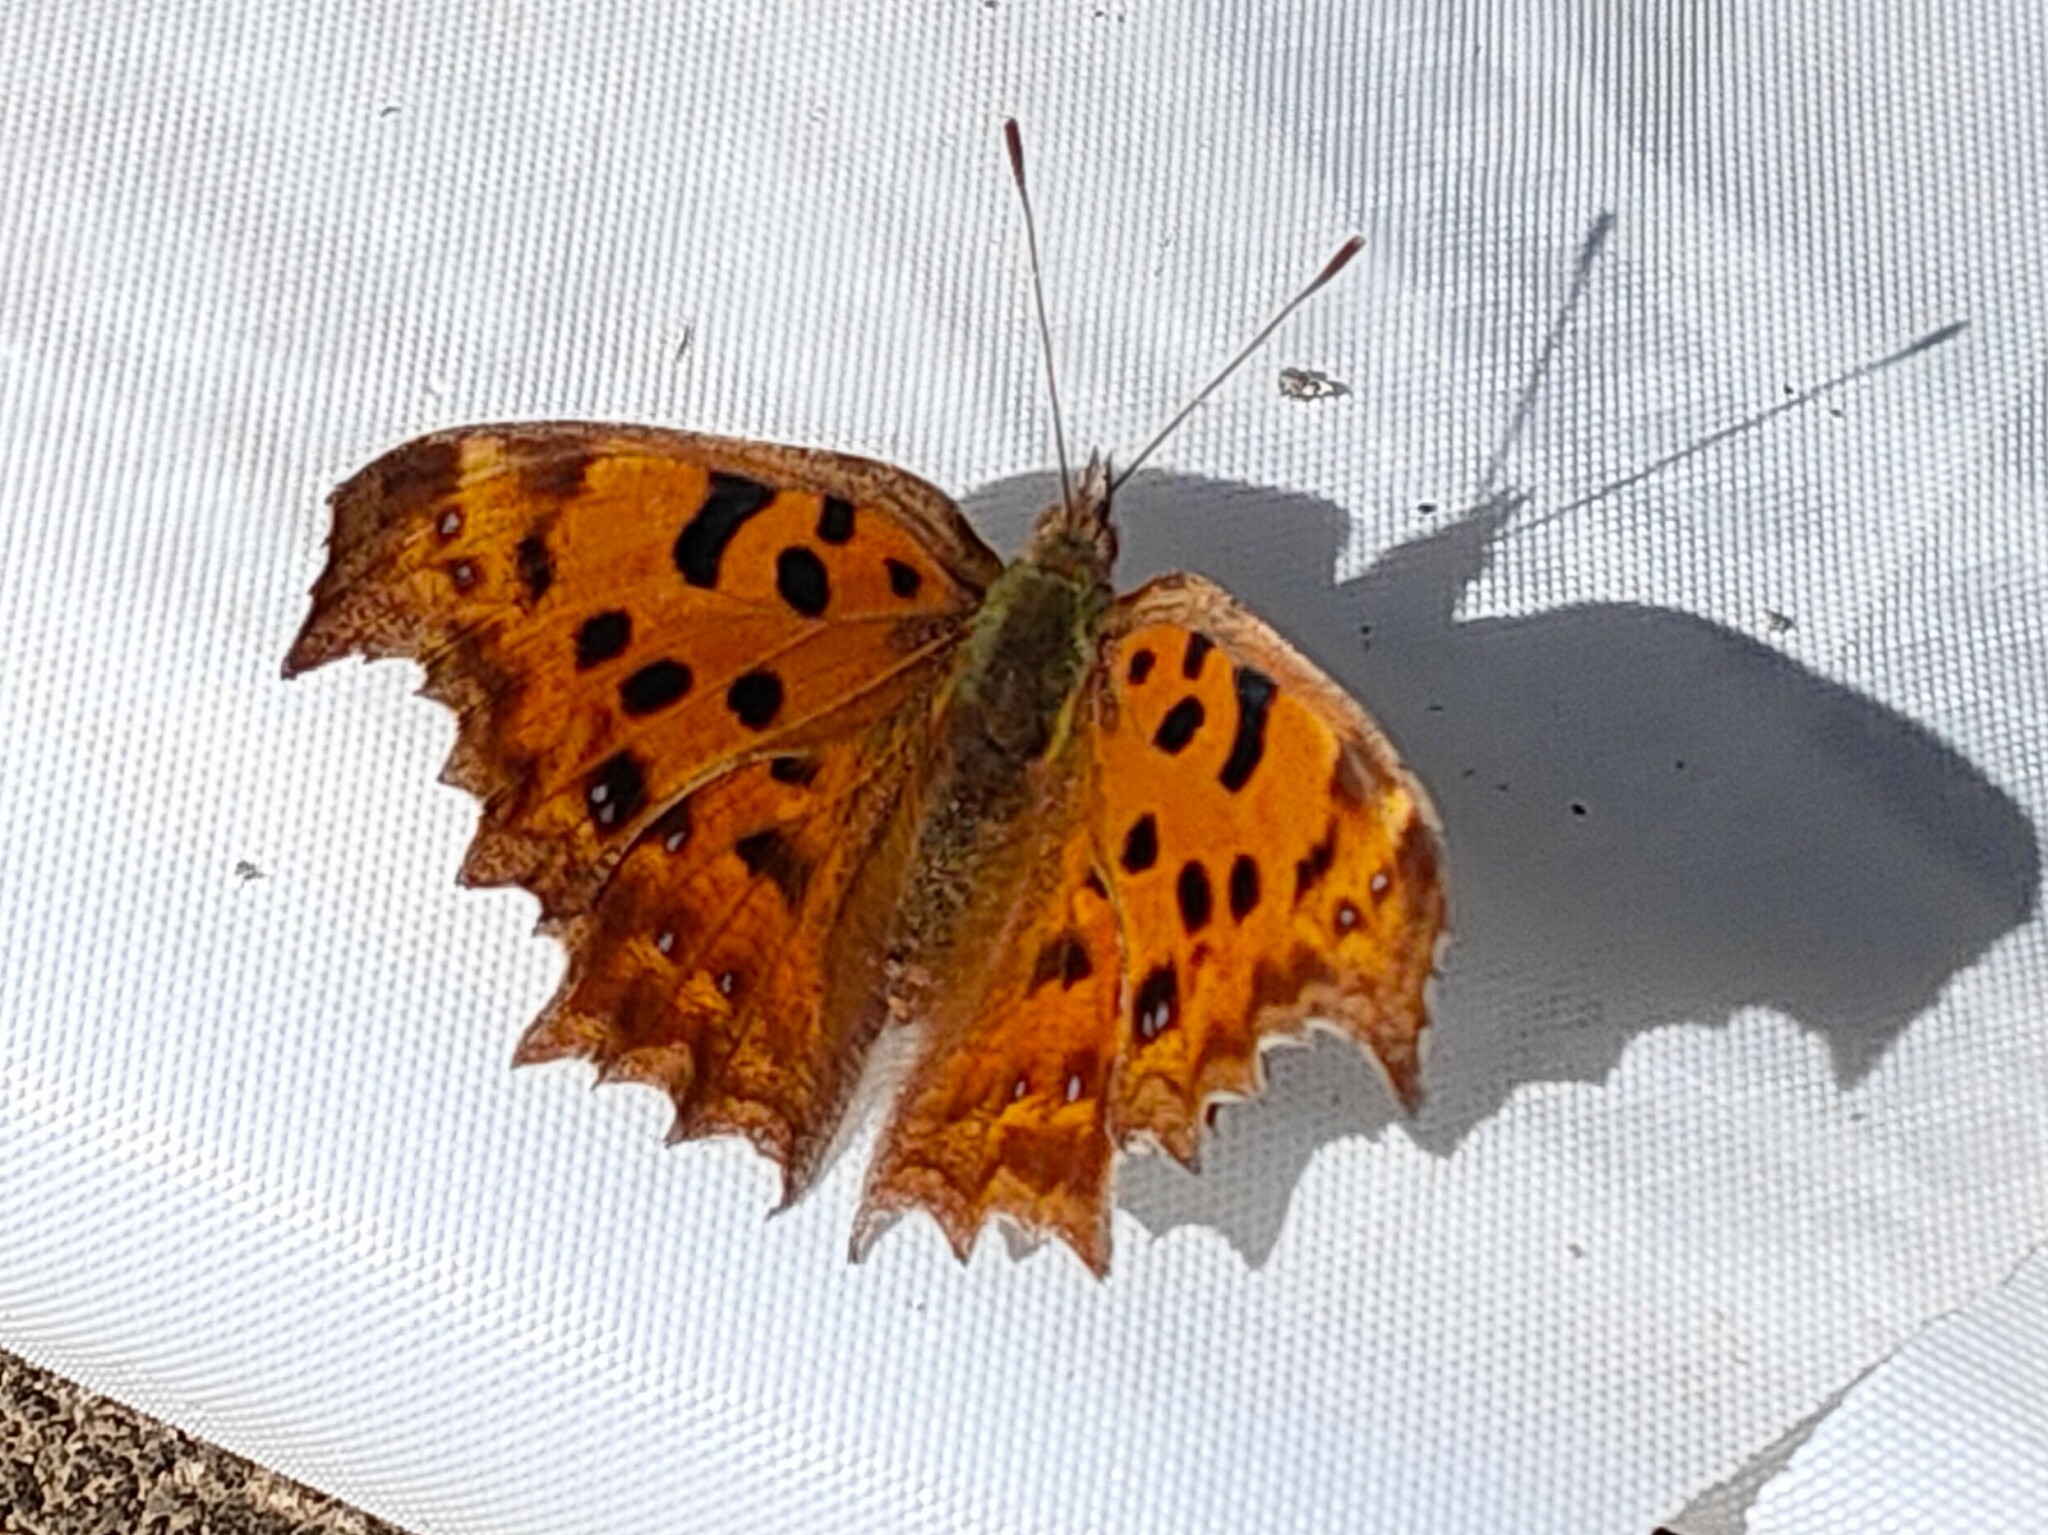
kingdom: Animalia
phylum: Arthropoda
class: Insecta
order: Lepidoptera
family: Nymphalidae
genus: Polygonia
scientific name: Polygonia c-aureum
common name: Asian comma
